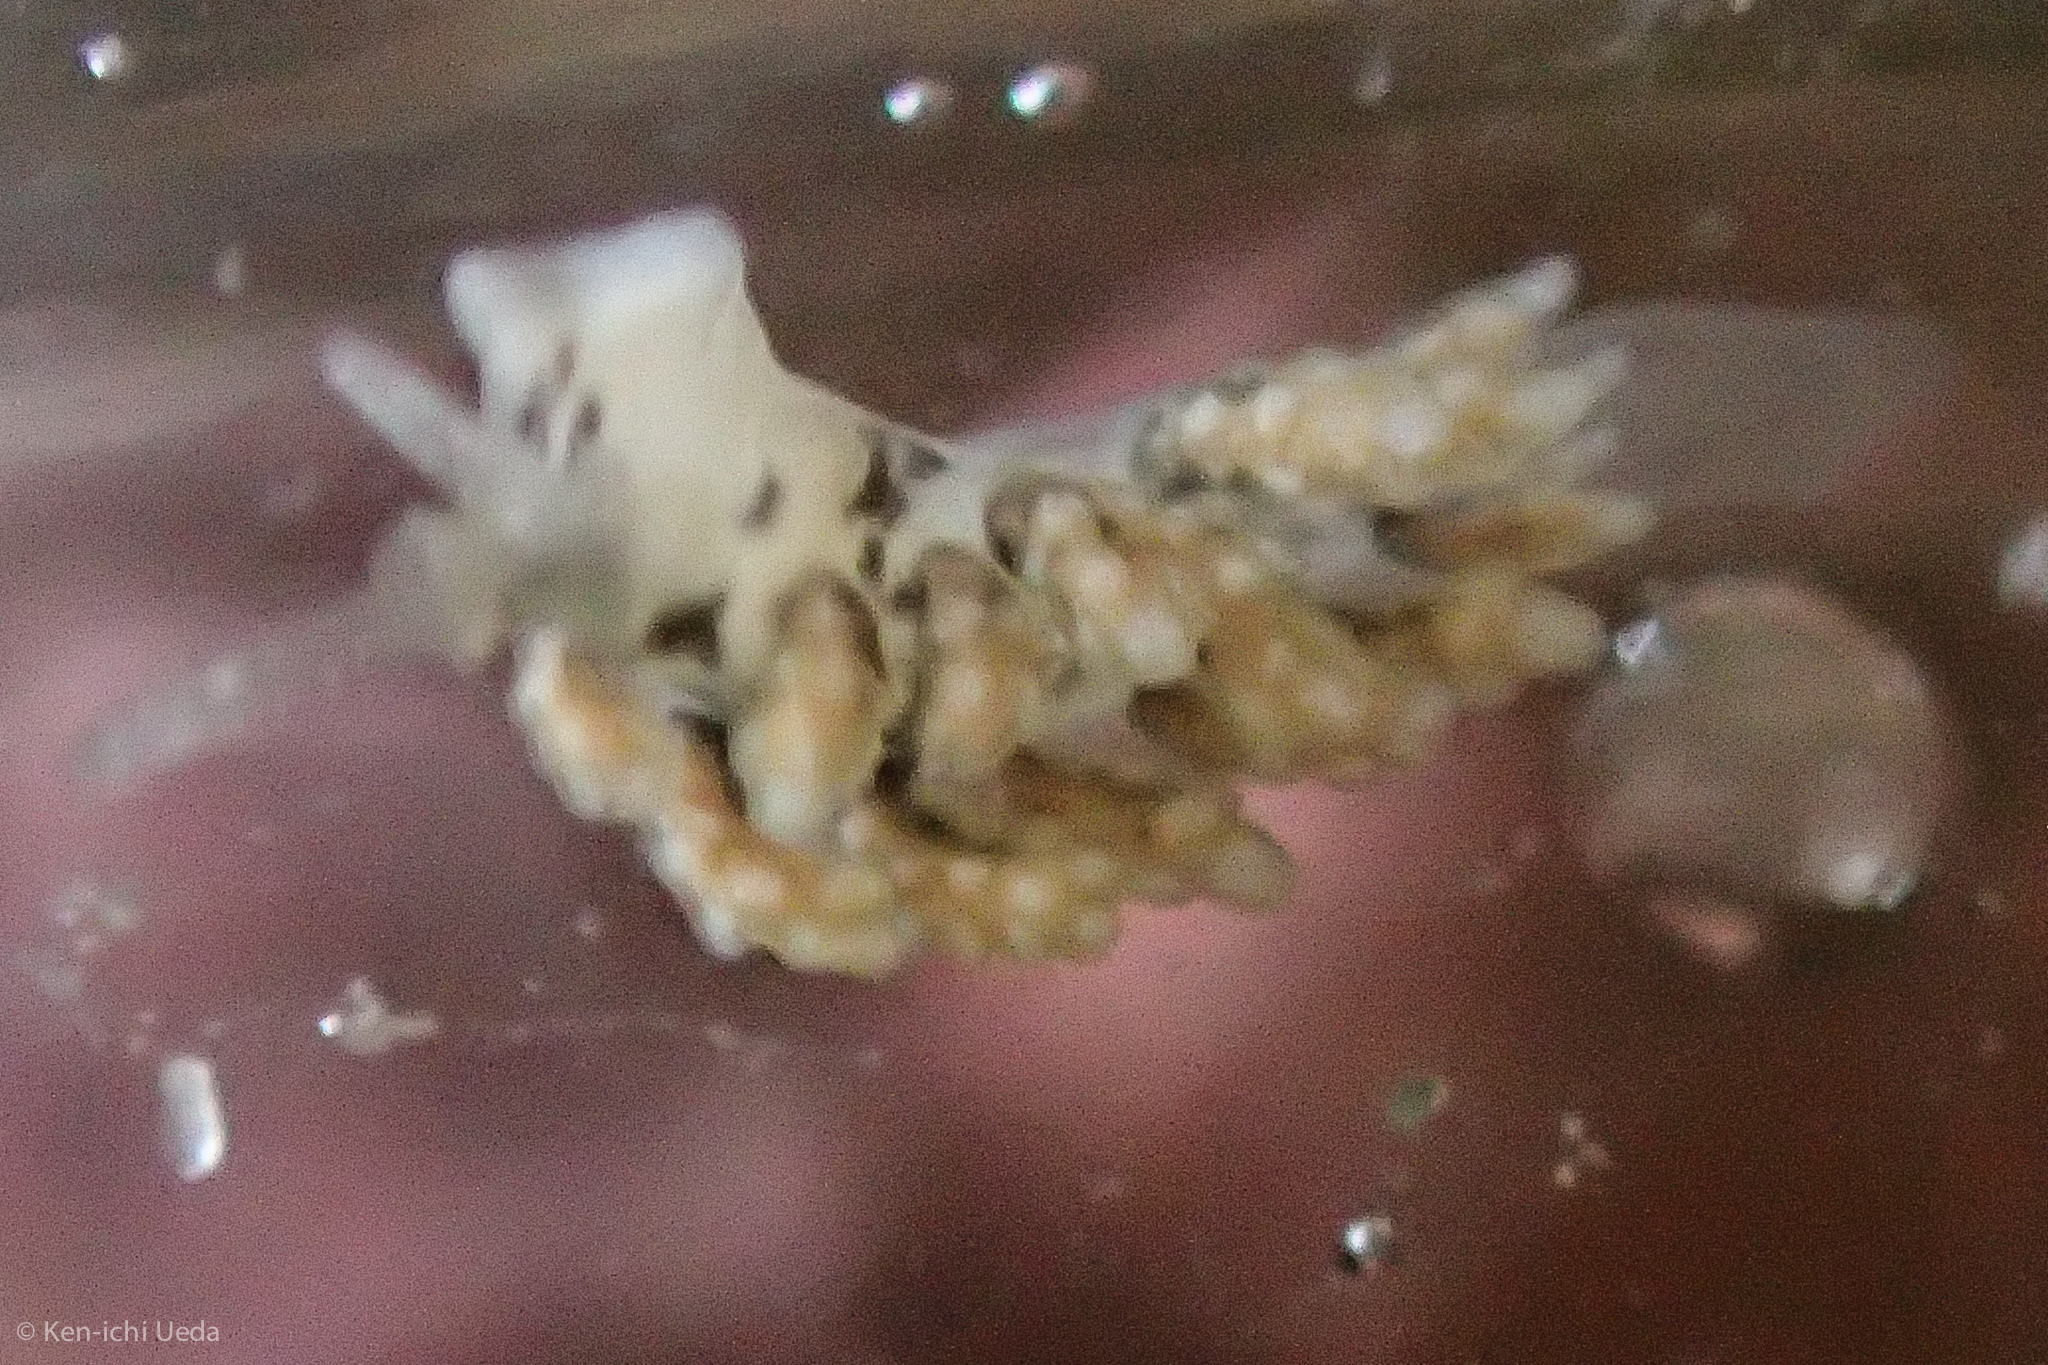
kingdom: Animalia
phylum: Mollusca
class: Gastropoda
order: Nudibranchia
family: Dotidae
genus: Doto
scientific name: Doto kya
